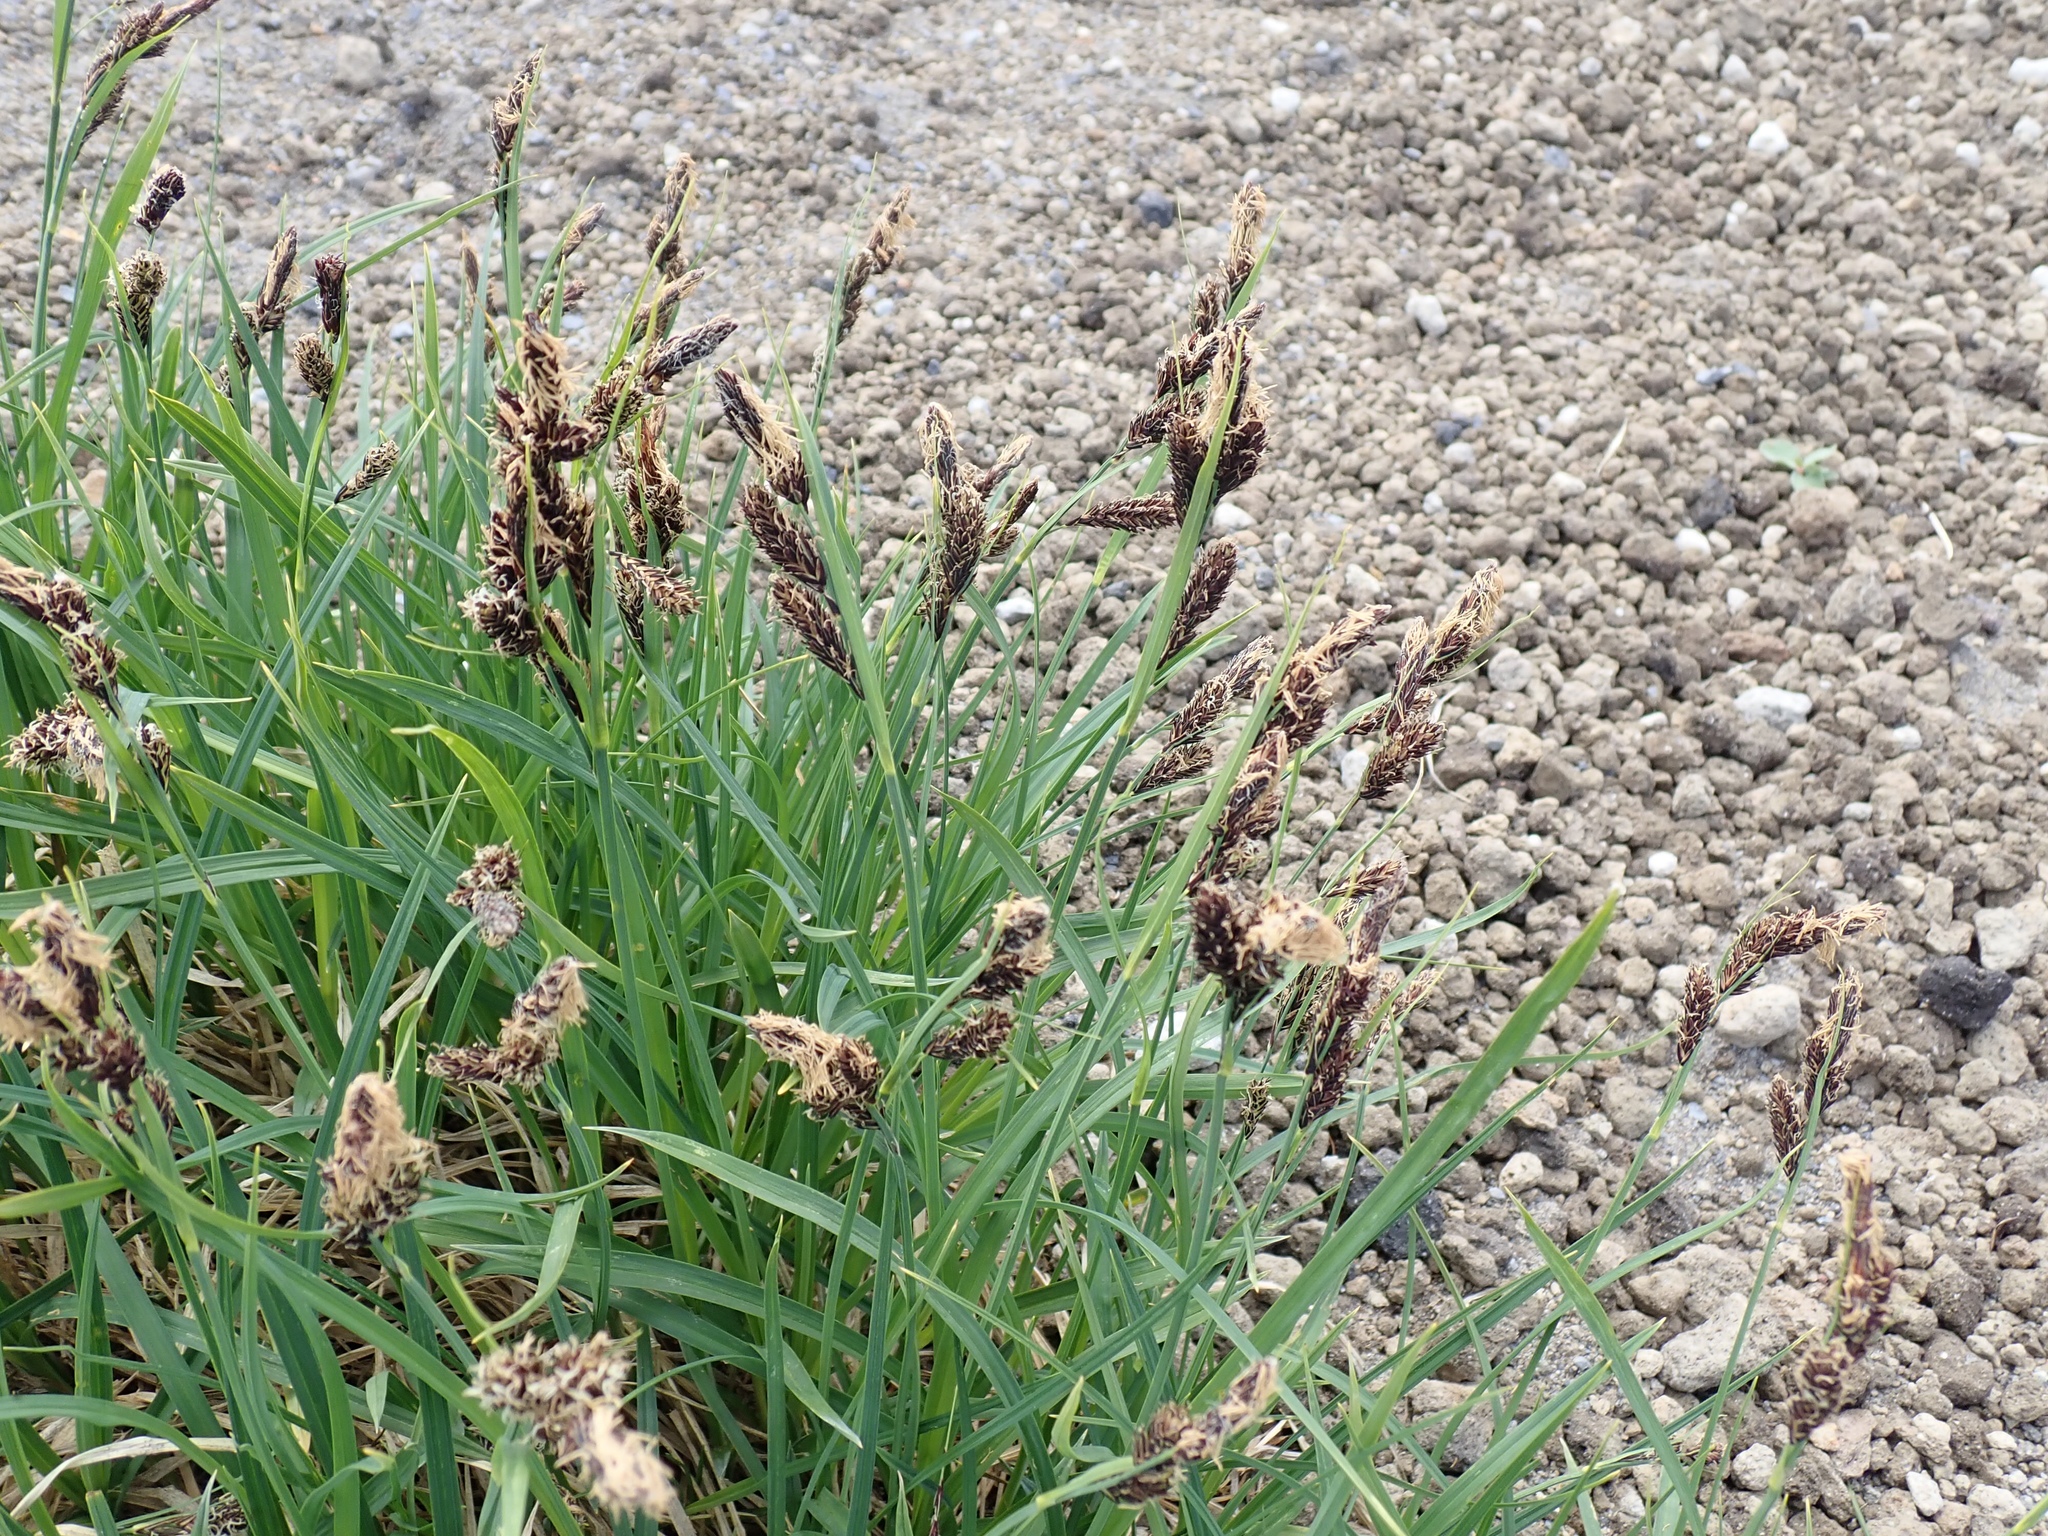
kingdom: Plantae
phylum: Tracheophyta
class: Liliopsida
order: Poales
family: Cyperaceae
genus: Carex
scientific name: Carex spectabilis
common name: Northwestern showy sedge
